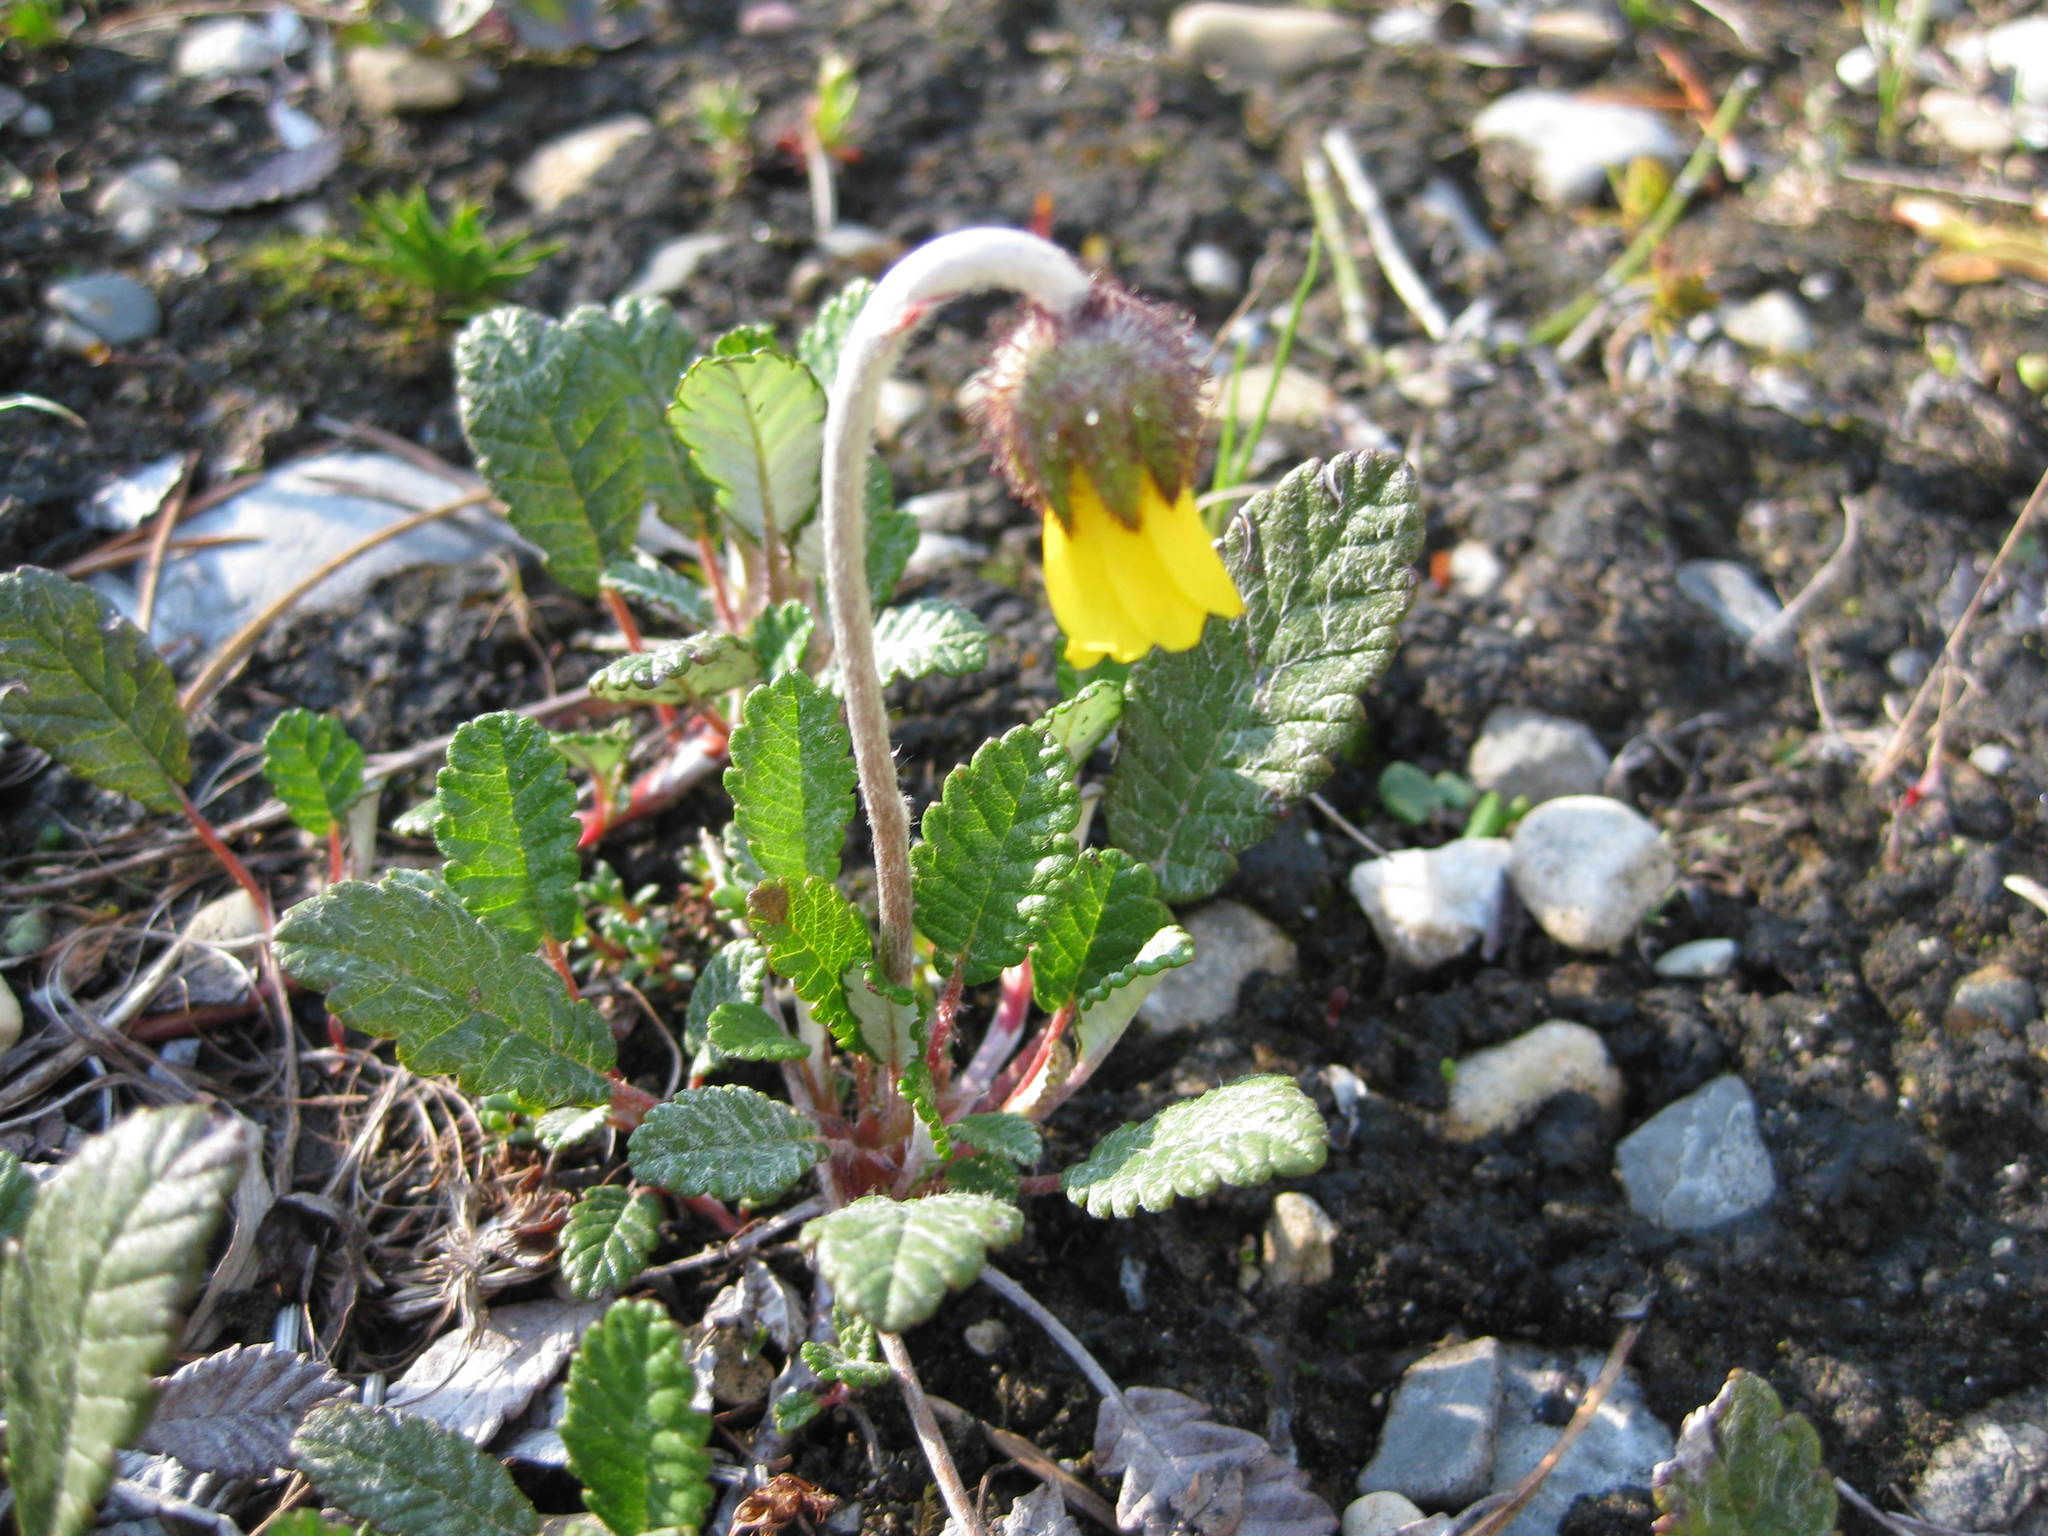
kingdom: Plantae
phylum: Tracheophyta
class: Magnoliopsida
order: Rosales
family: Rosaceae
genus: Dryas
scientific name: Dryas drummondii
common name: Drummond's dryad
